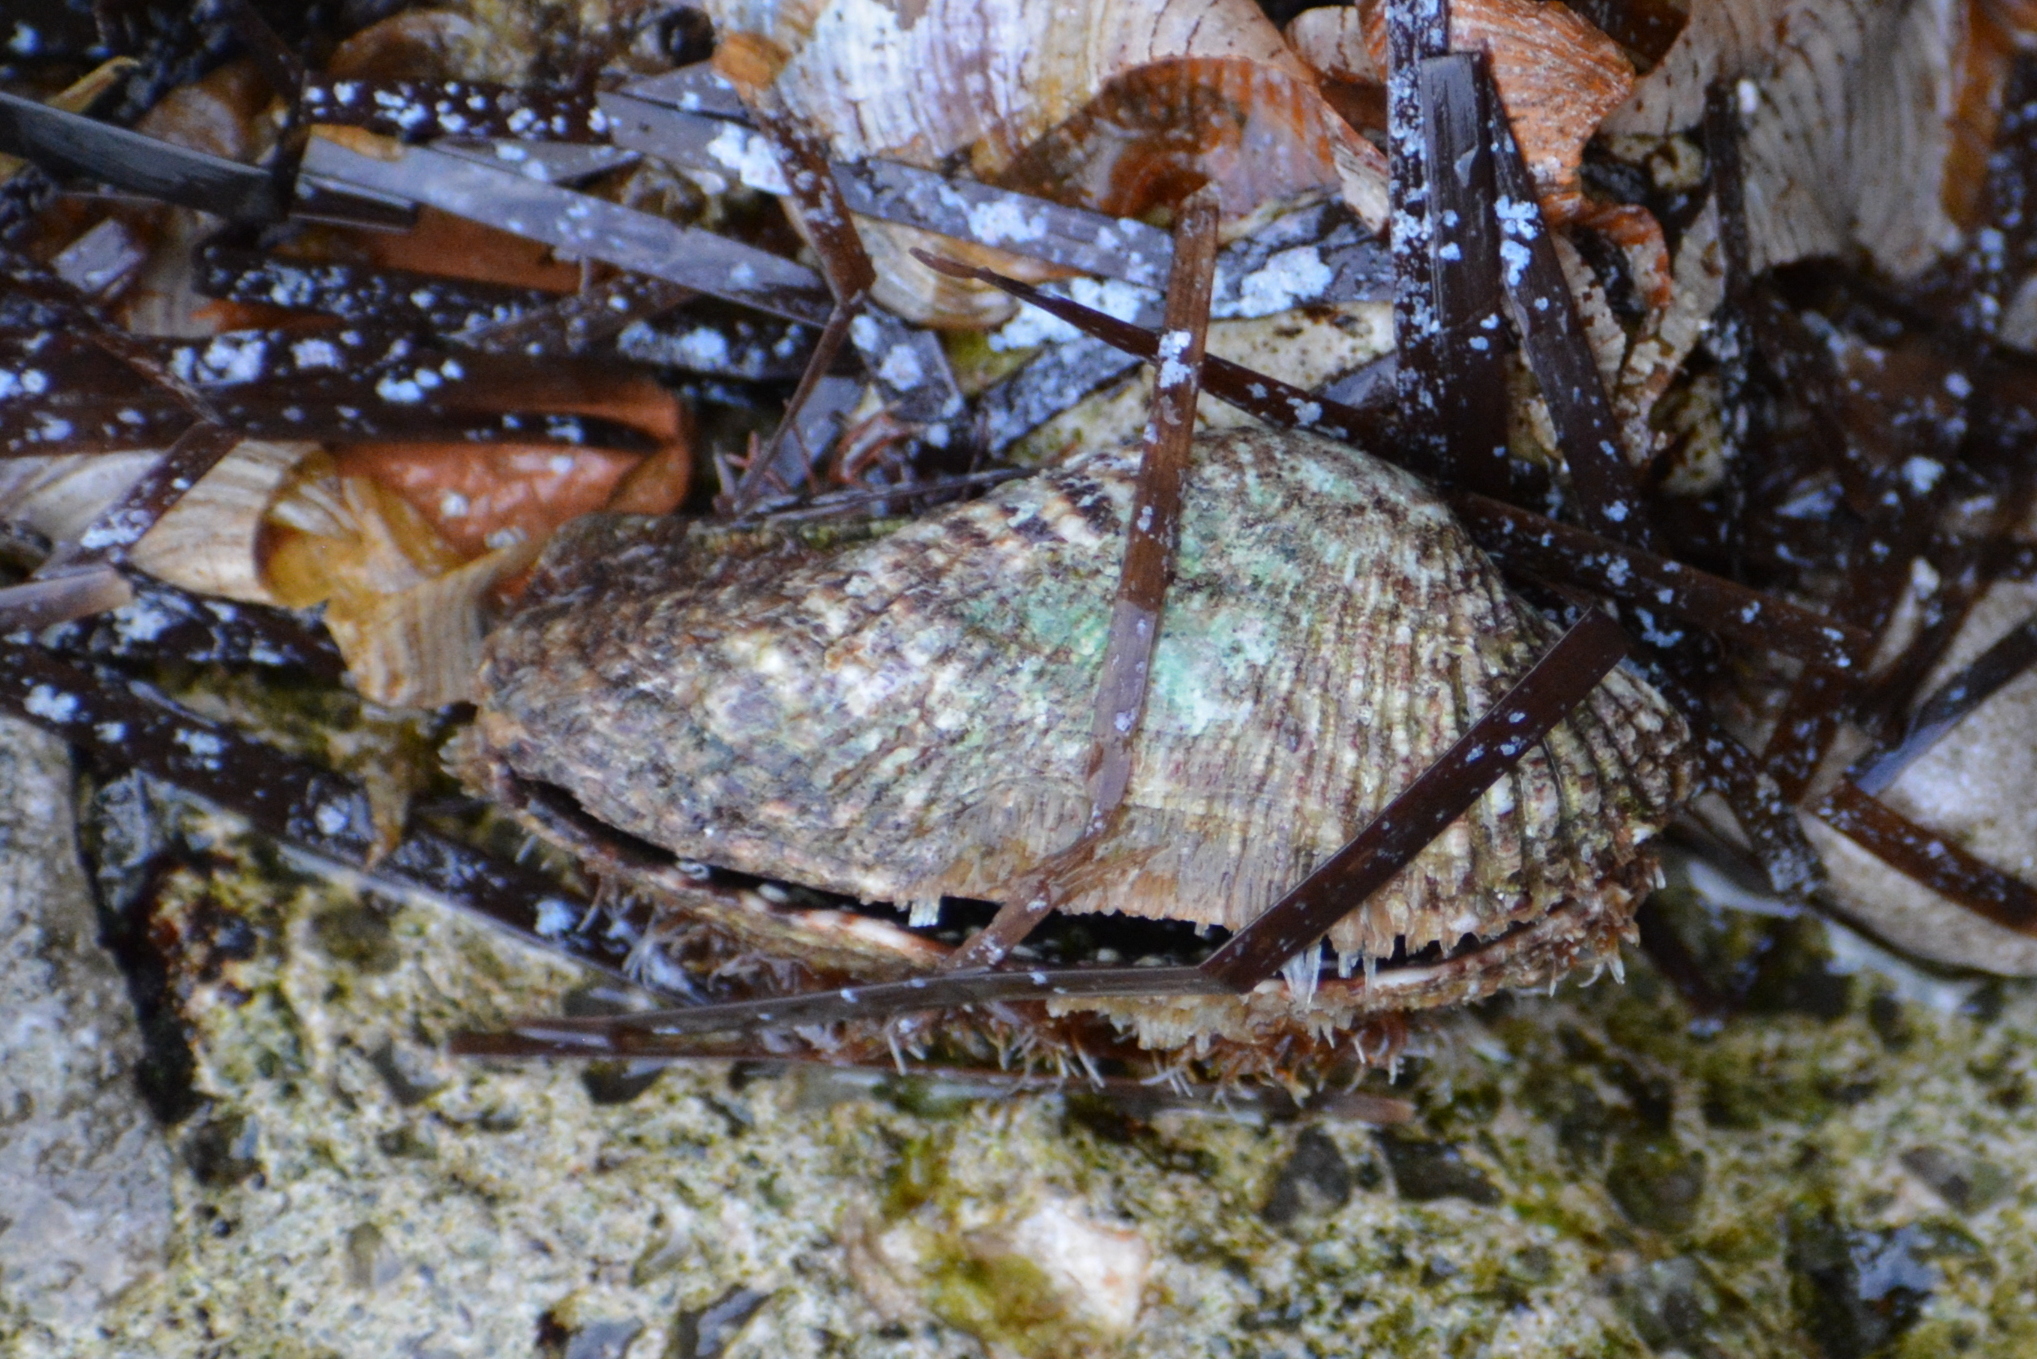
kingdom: Animalia
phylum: Mollusca
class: Bivalvia
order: Arcida
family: Arcidae
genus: Arca
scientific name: Arca noae
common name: Noah's arch
